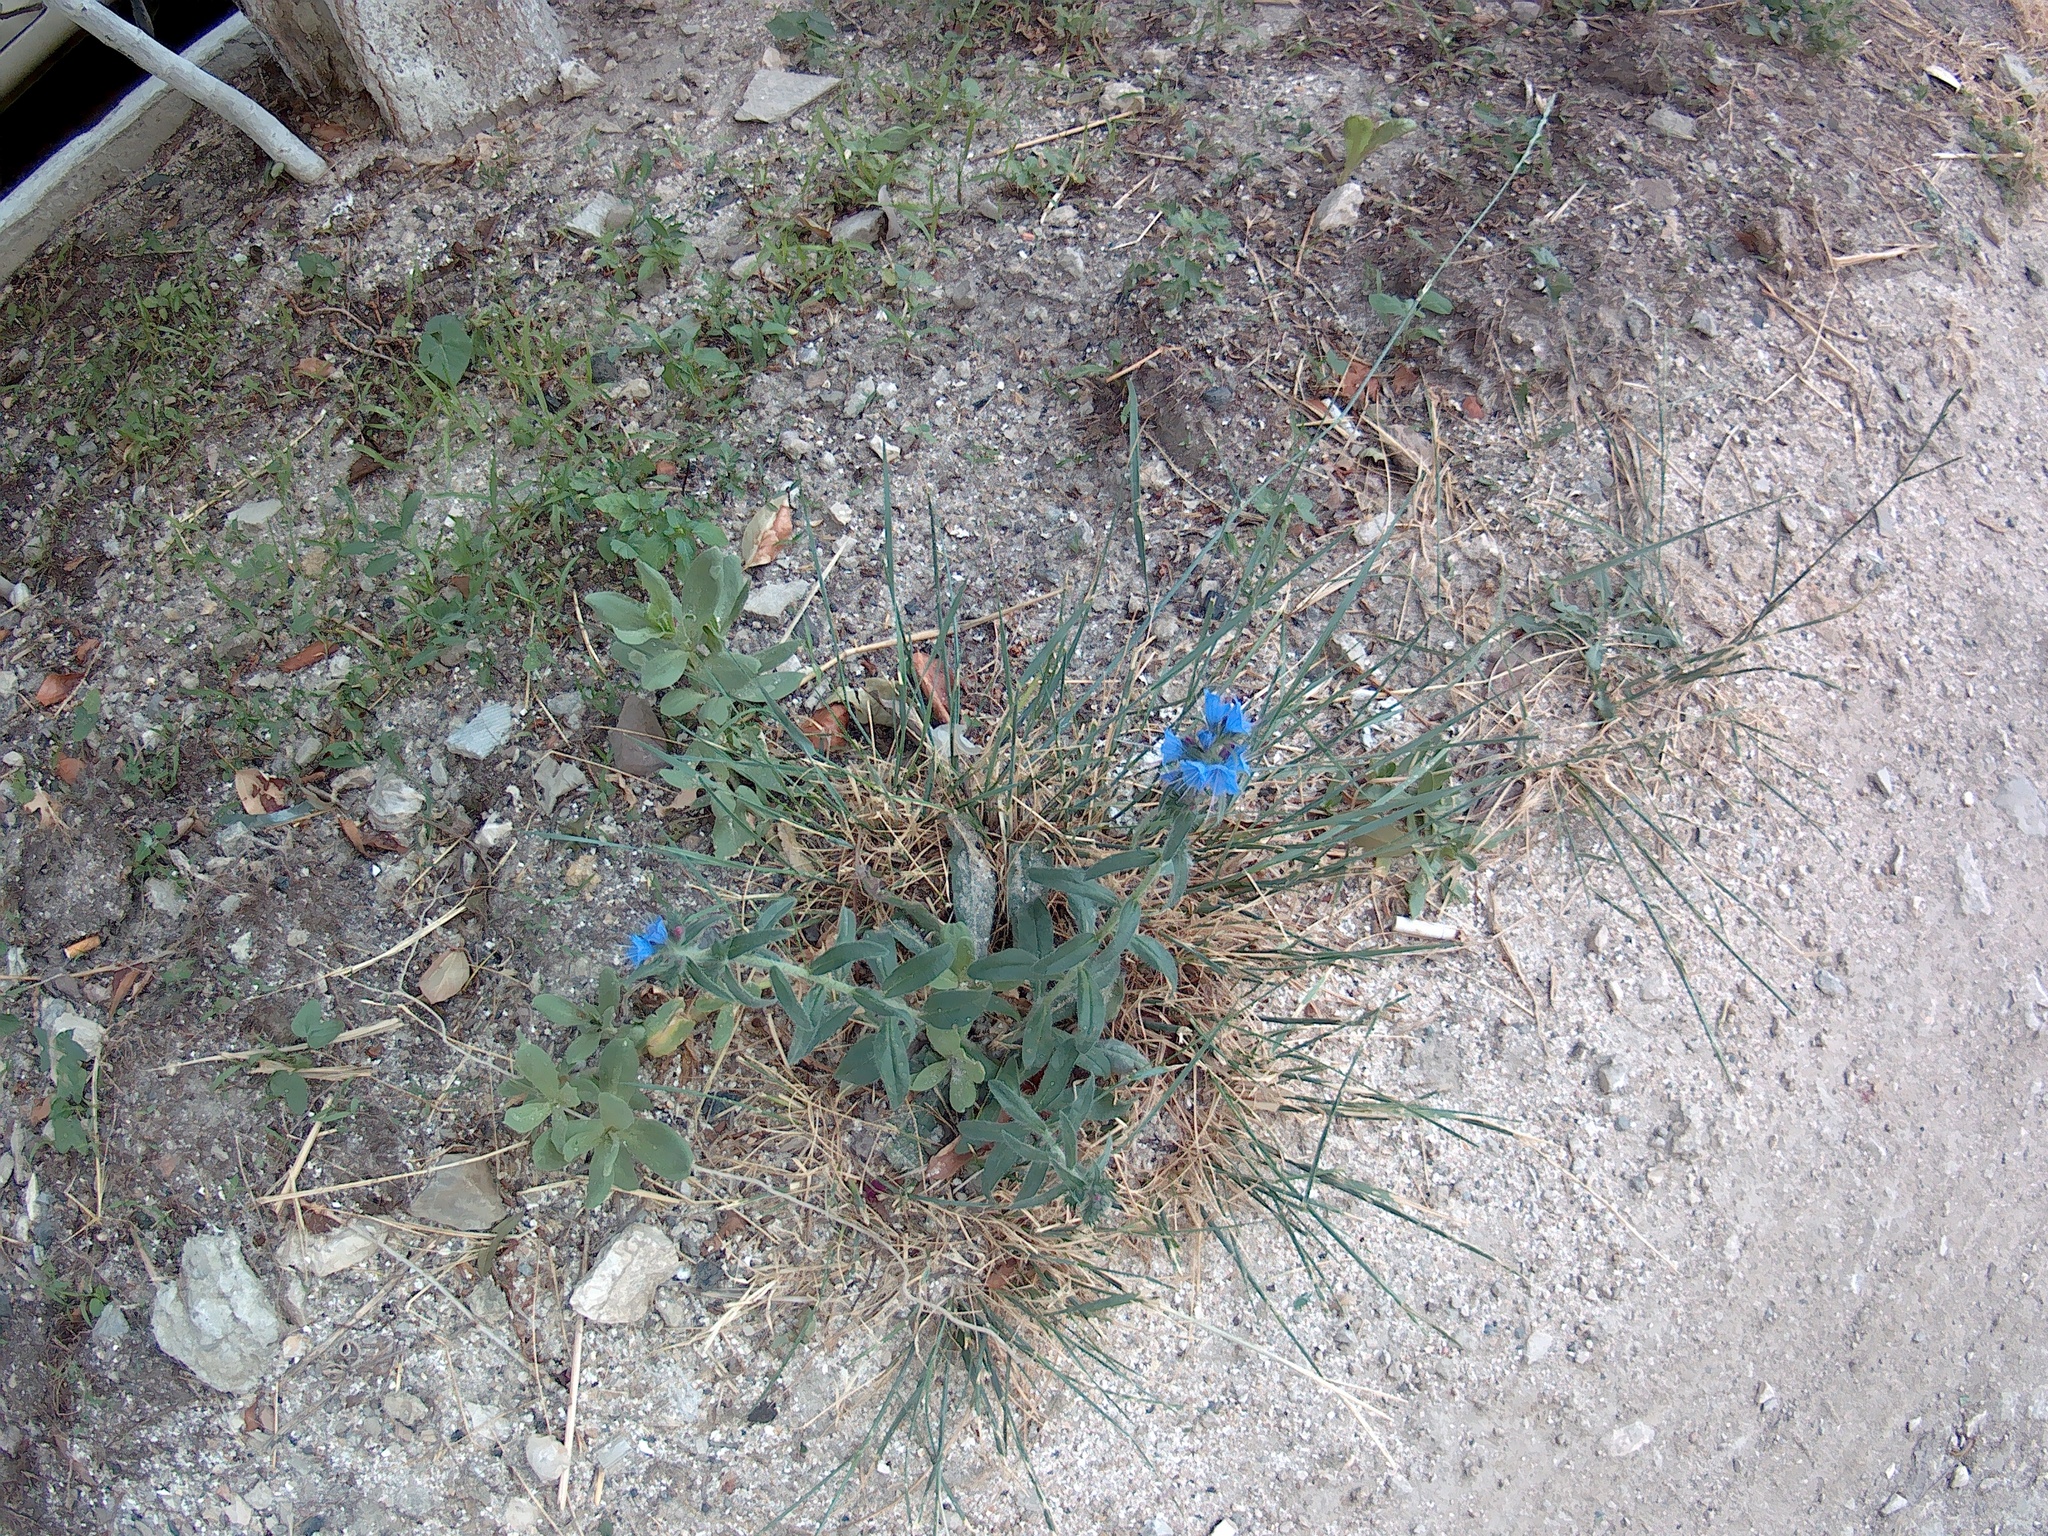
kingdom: Plantae
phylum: Tracheophyta
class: Magnoliopsida
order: Boraginales
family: Boraginaceae
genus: Echium
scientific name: Echium vulgare
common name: Common viper's bugloss
